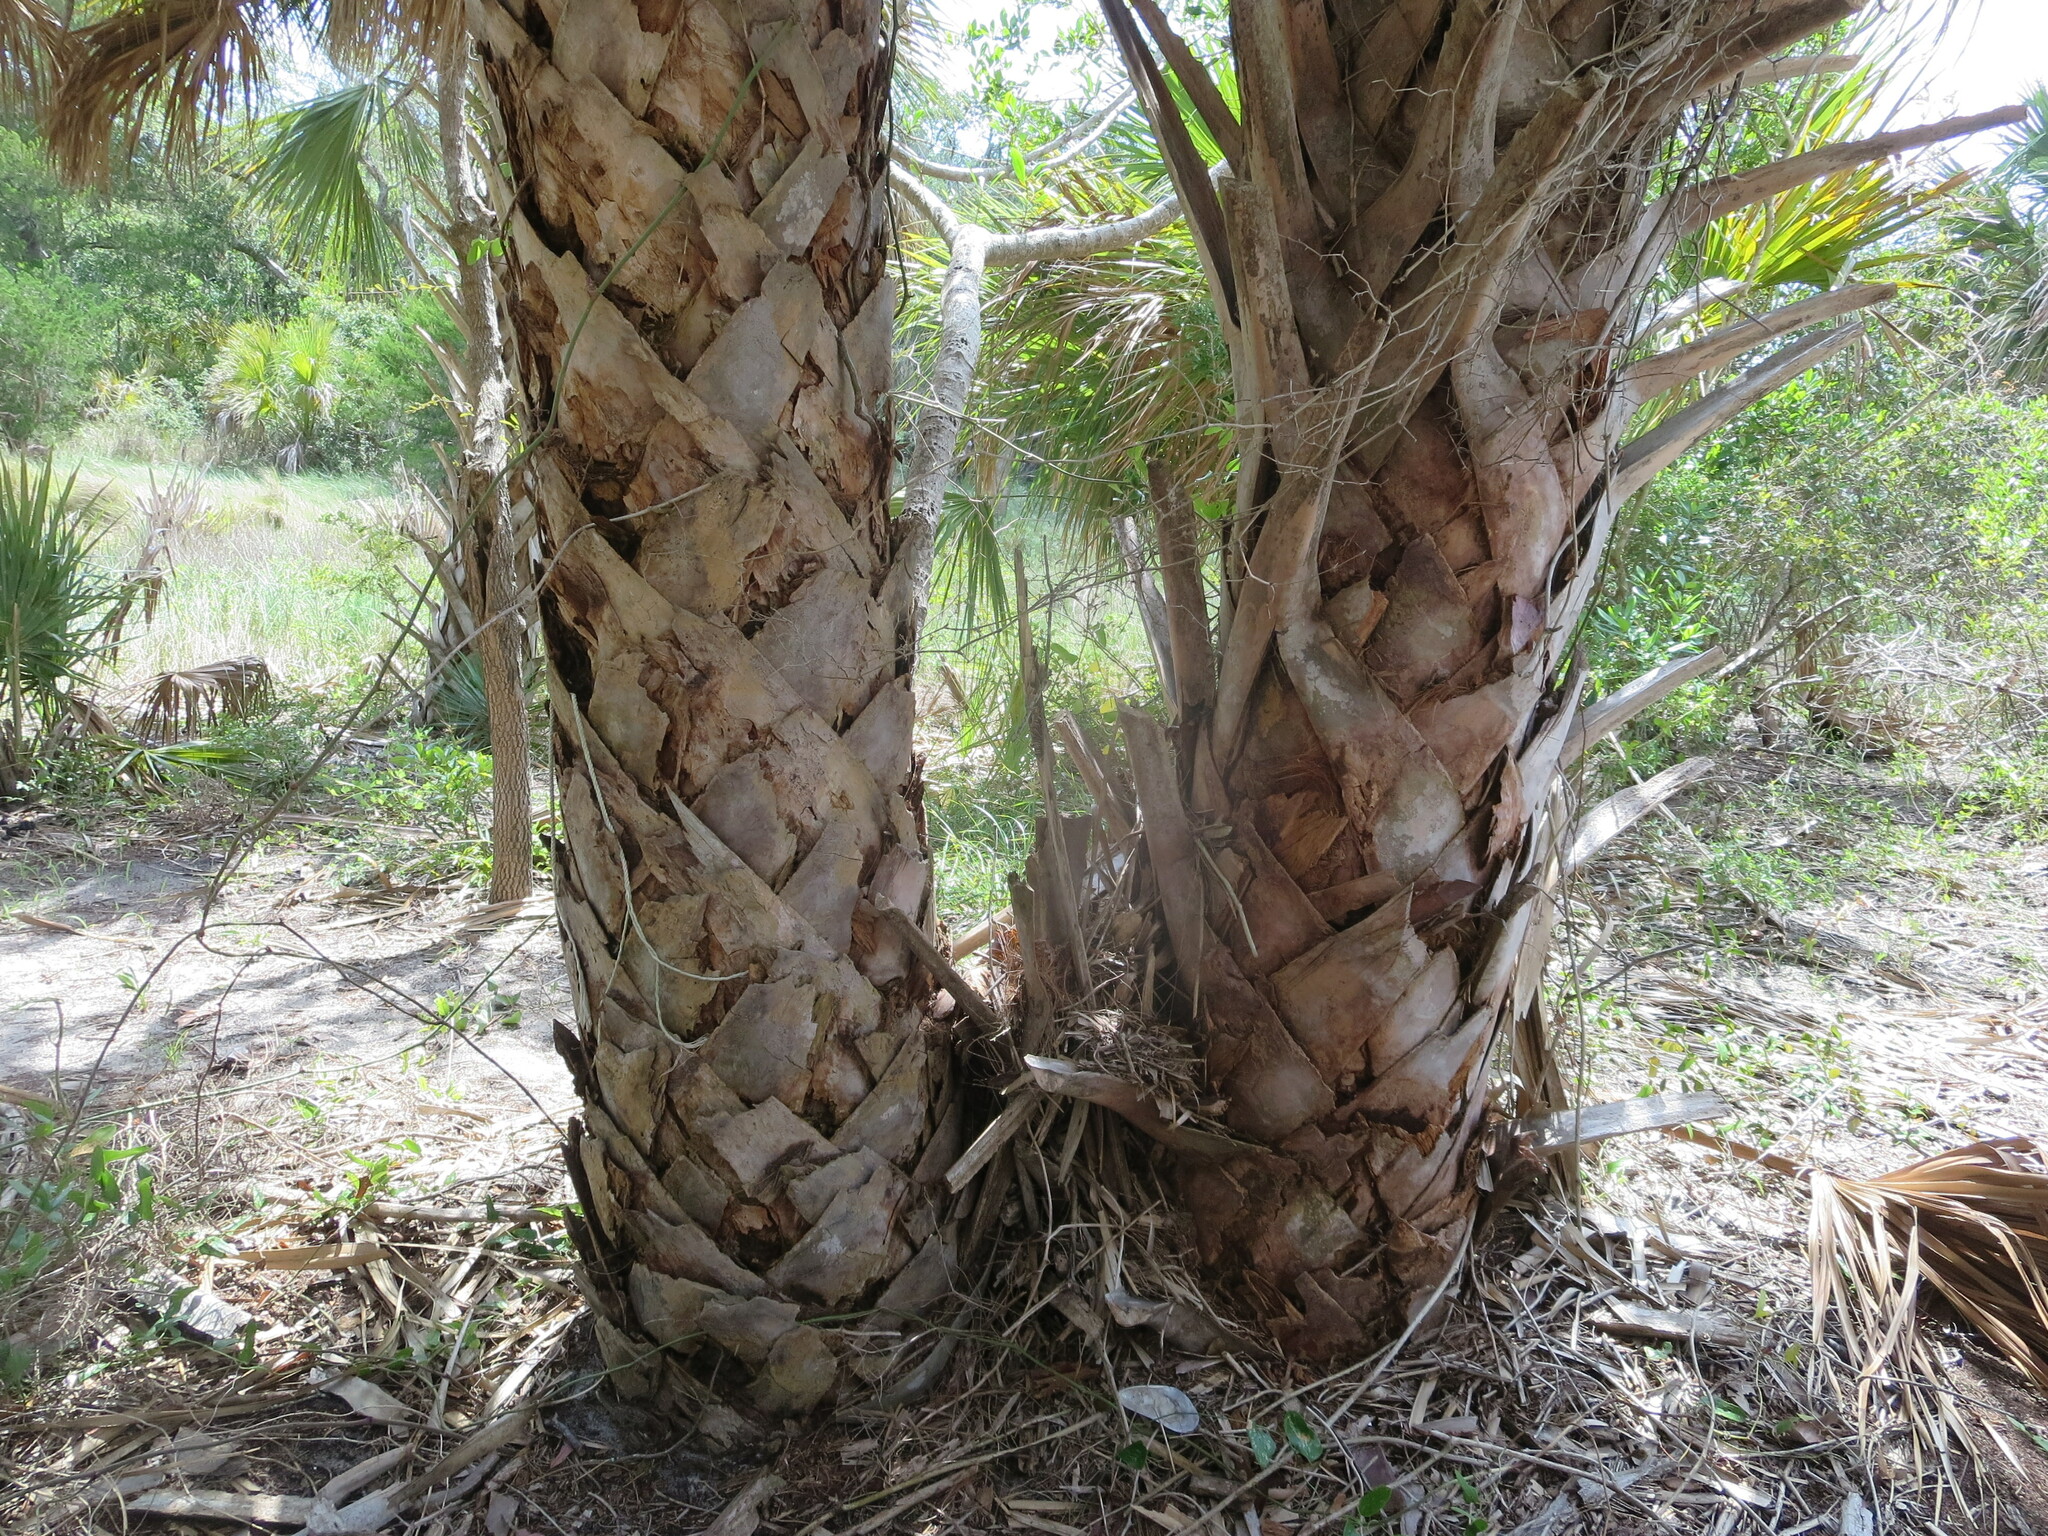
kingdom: Plantae
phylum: Tracheophyta
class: Liliopsida
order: Arecales
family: Arecaceae
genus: Sabal
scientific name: Sabal palmetto
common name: Blue palmetto
